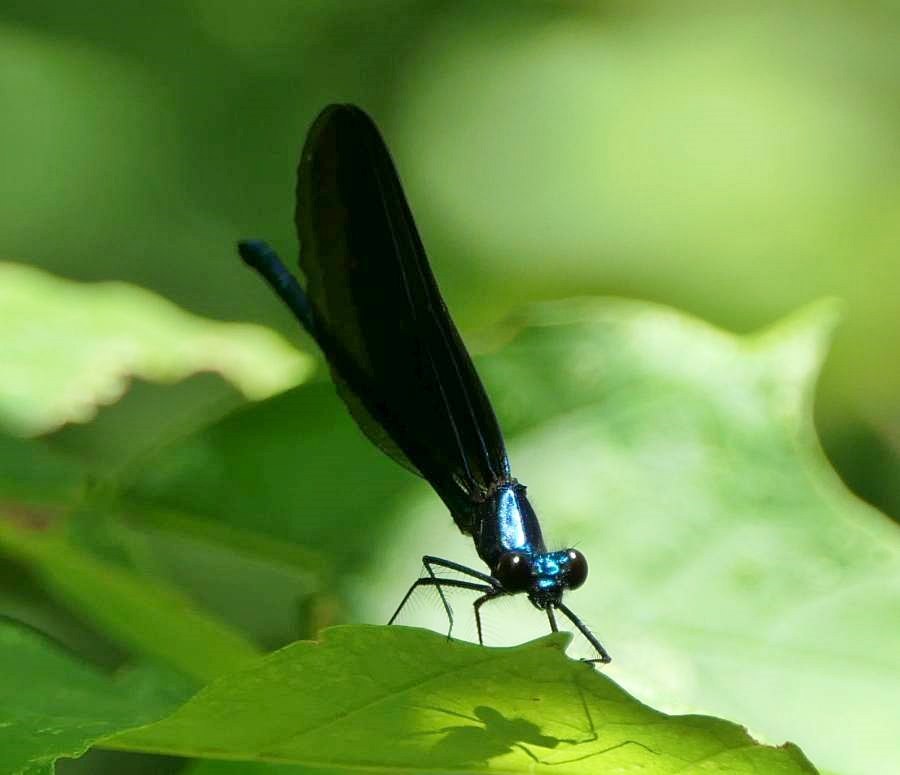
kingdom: Animalia
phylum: Arthropoda
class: Insecta
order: Odonata
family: Calopterygidae
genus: Calopteryx
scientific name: Calopteryx maculata
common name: Ebony jewelwing
